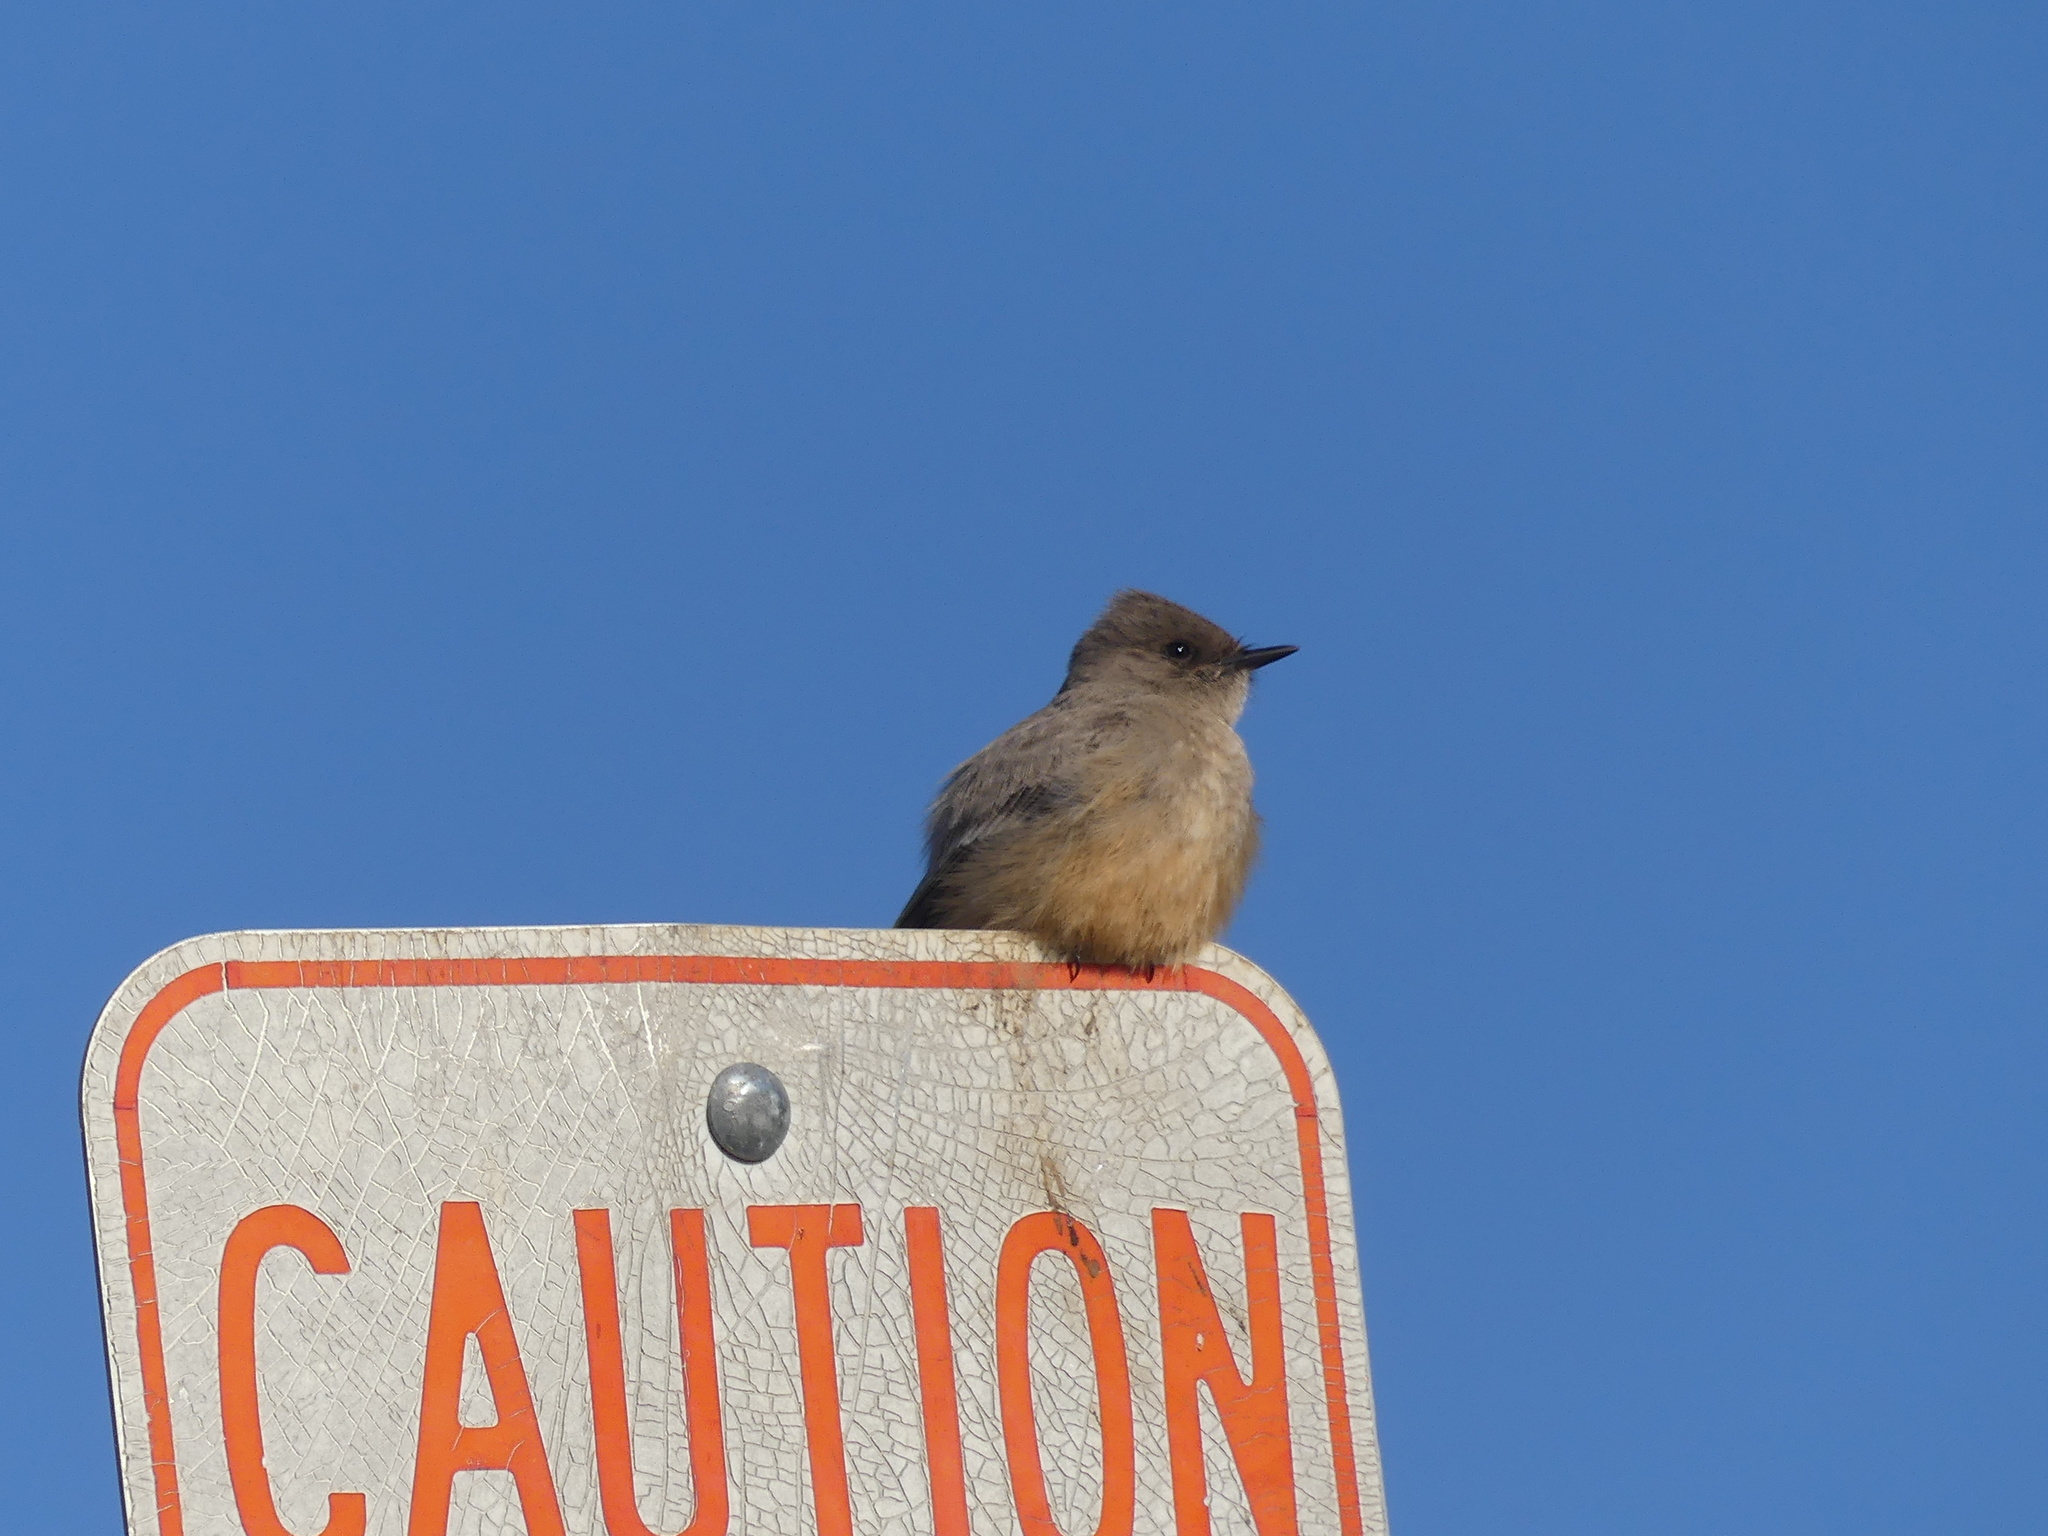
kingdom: Animalia
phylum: Chordata
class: Aves
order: Passeriformes
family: Tyrannidae
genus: Sayornis
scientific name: Sayornis saya
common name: Say's phoebe
